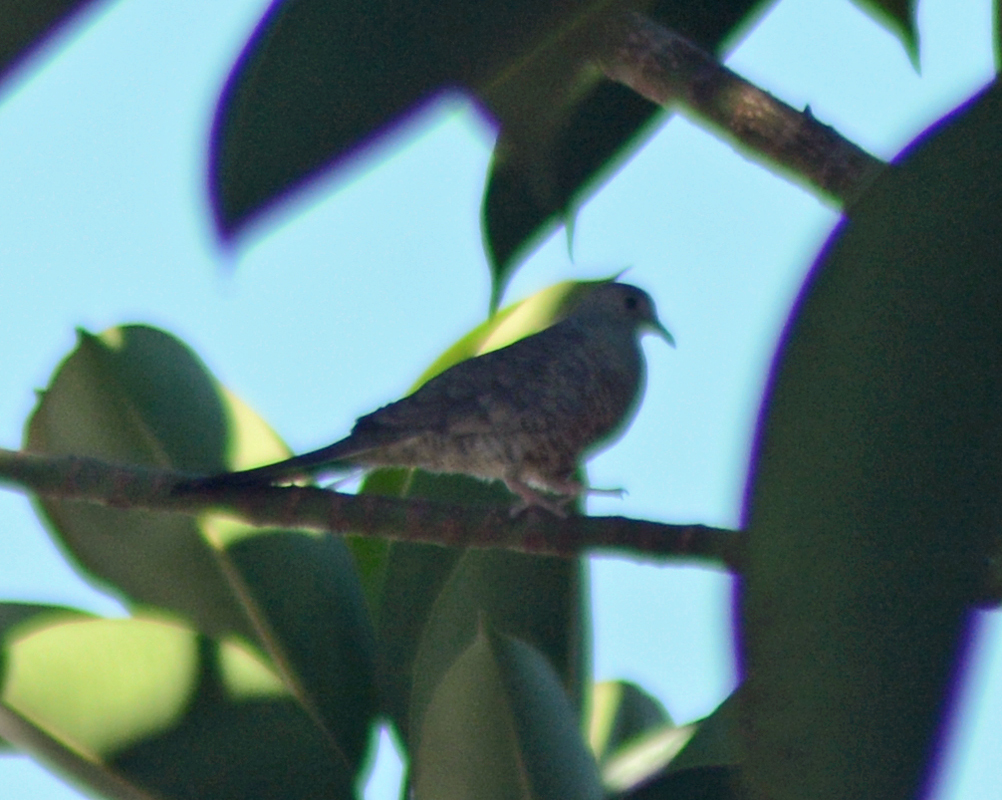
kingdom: Animalia
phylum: Chordata
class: Aves
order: Columbiformes
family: Columbidae
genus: Columbina
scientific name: Columbina inca
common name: Inca dove
